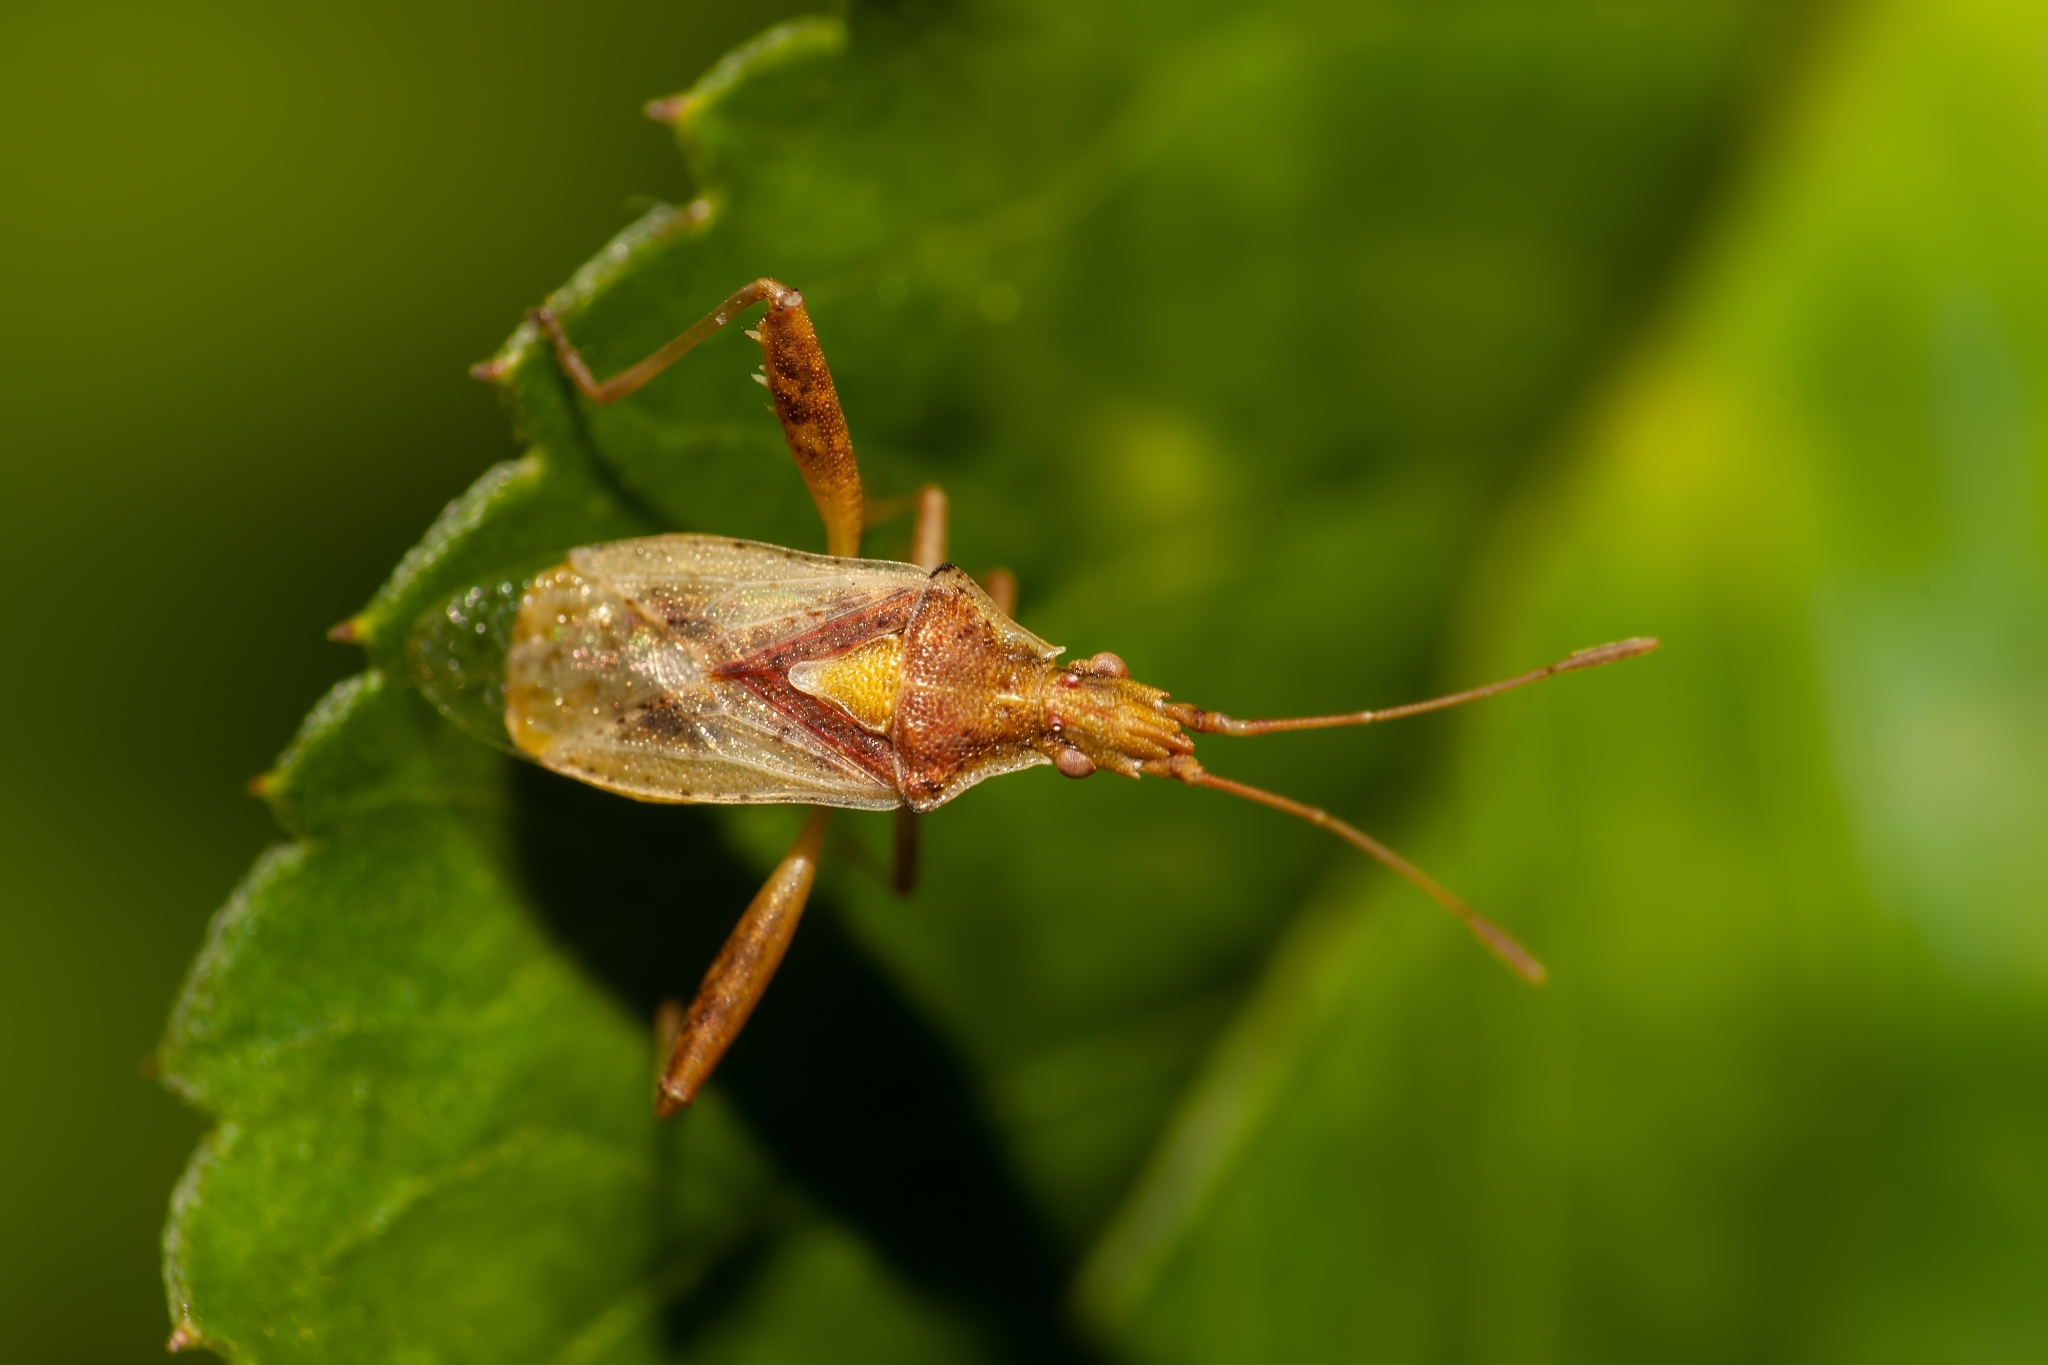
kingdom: Animalia
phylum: Arthropoda
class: Insecta
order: Hemiptera
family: Rhopalidae
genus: Harmostes
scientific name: Harmostes reflexulus
